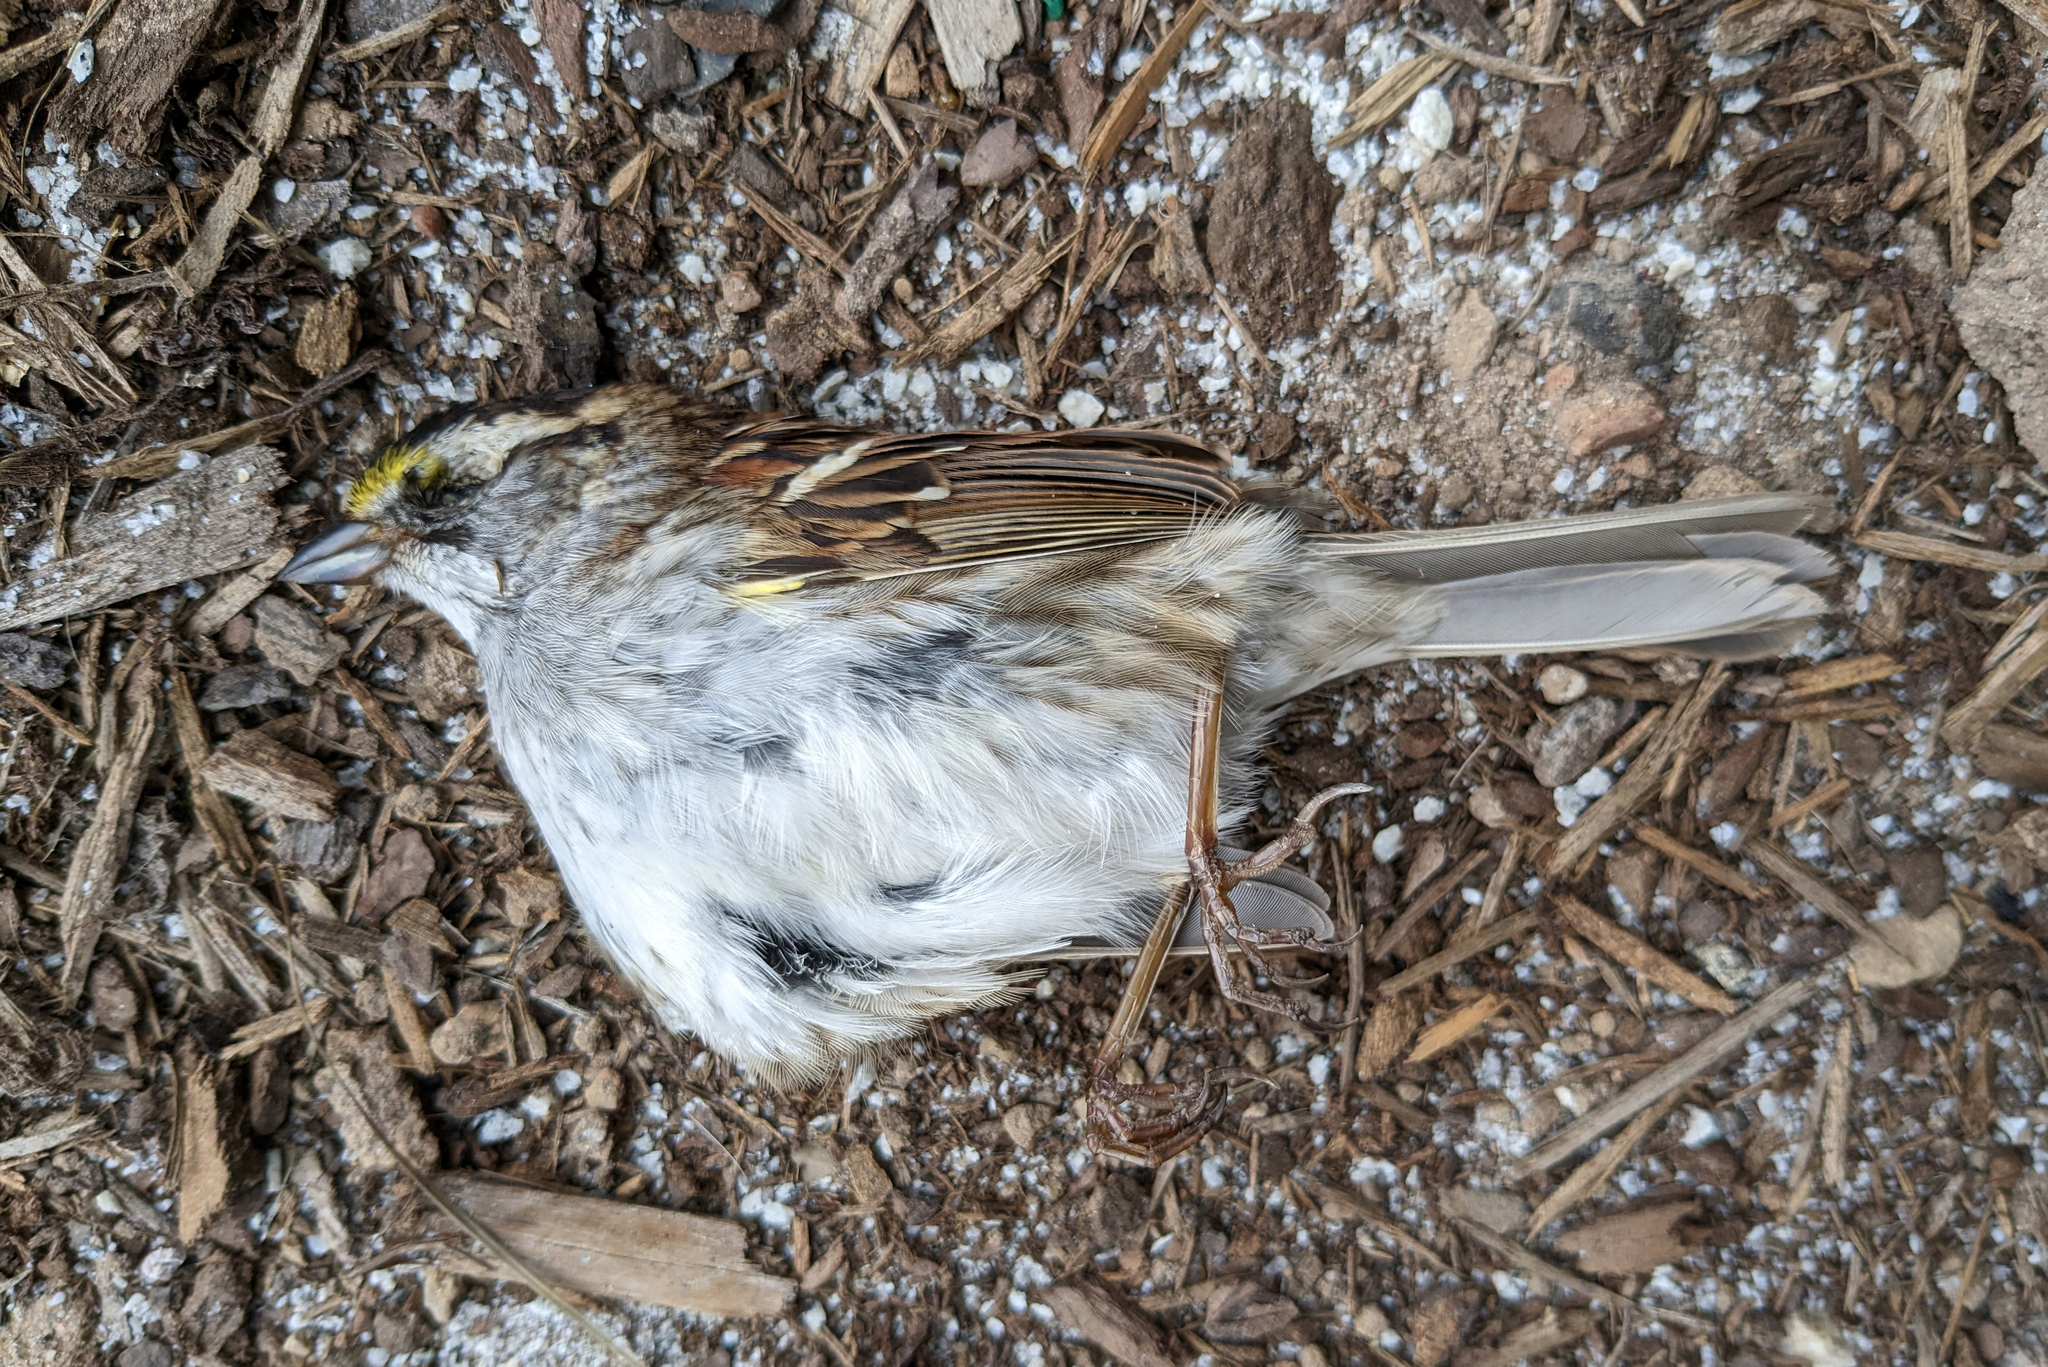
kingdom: Animalia
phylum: Chordata
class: Aves
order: Passeriformes
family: Passerellidae
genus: Zonotrichia
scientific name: Zonotrichia albicollis
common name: White-throated sparrow
